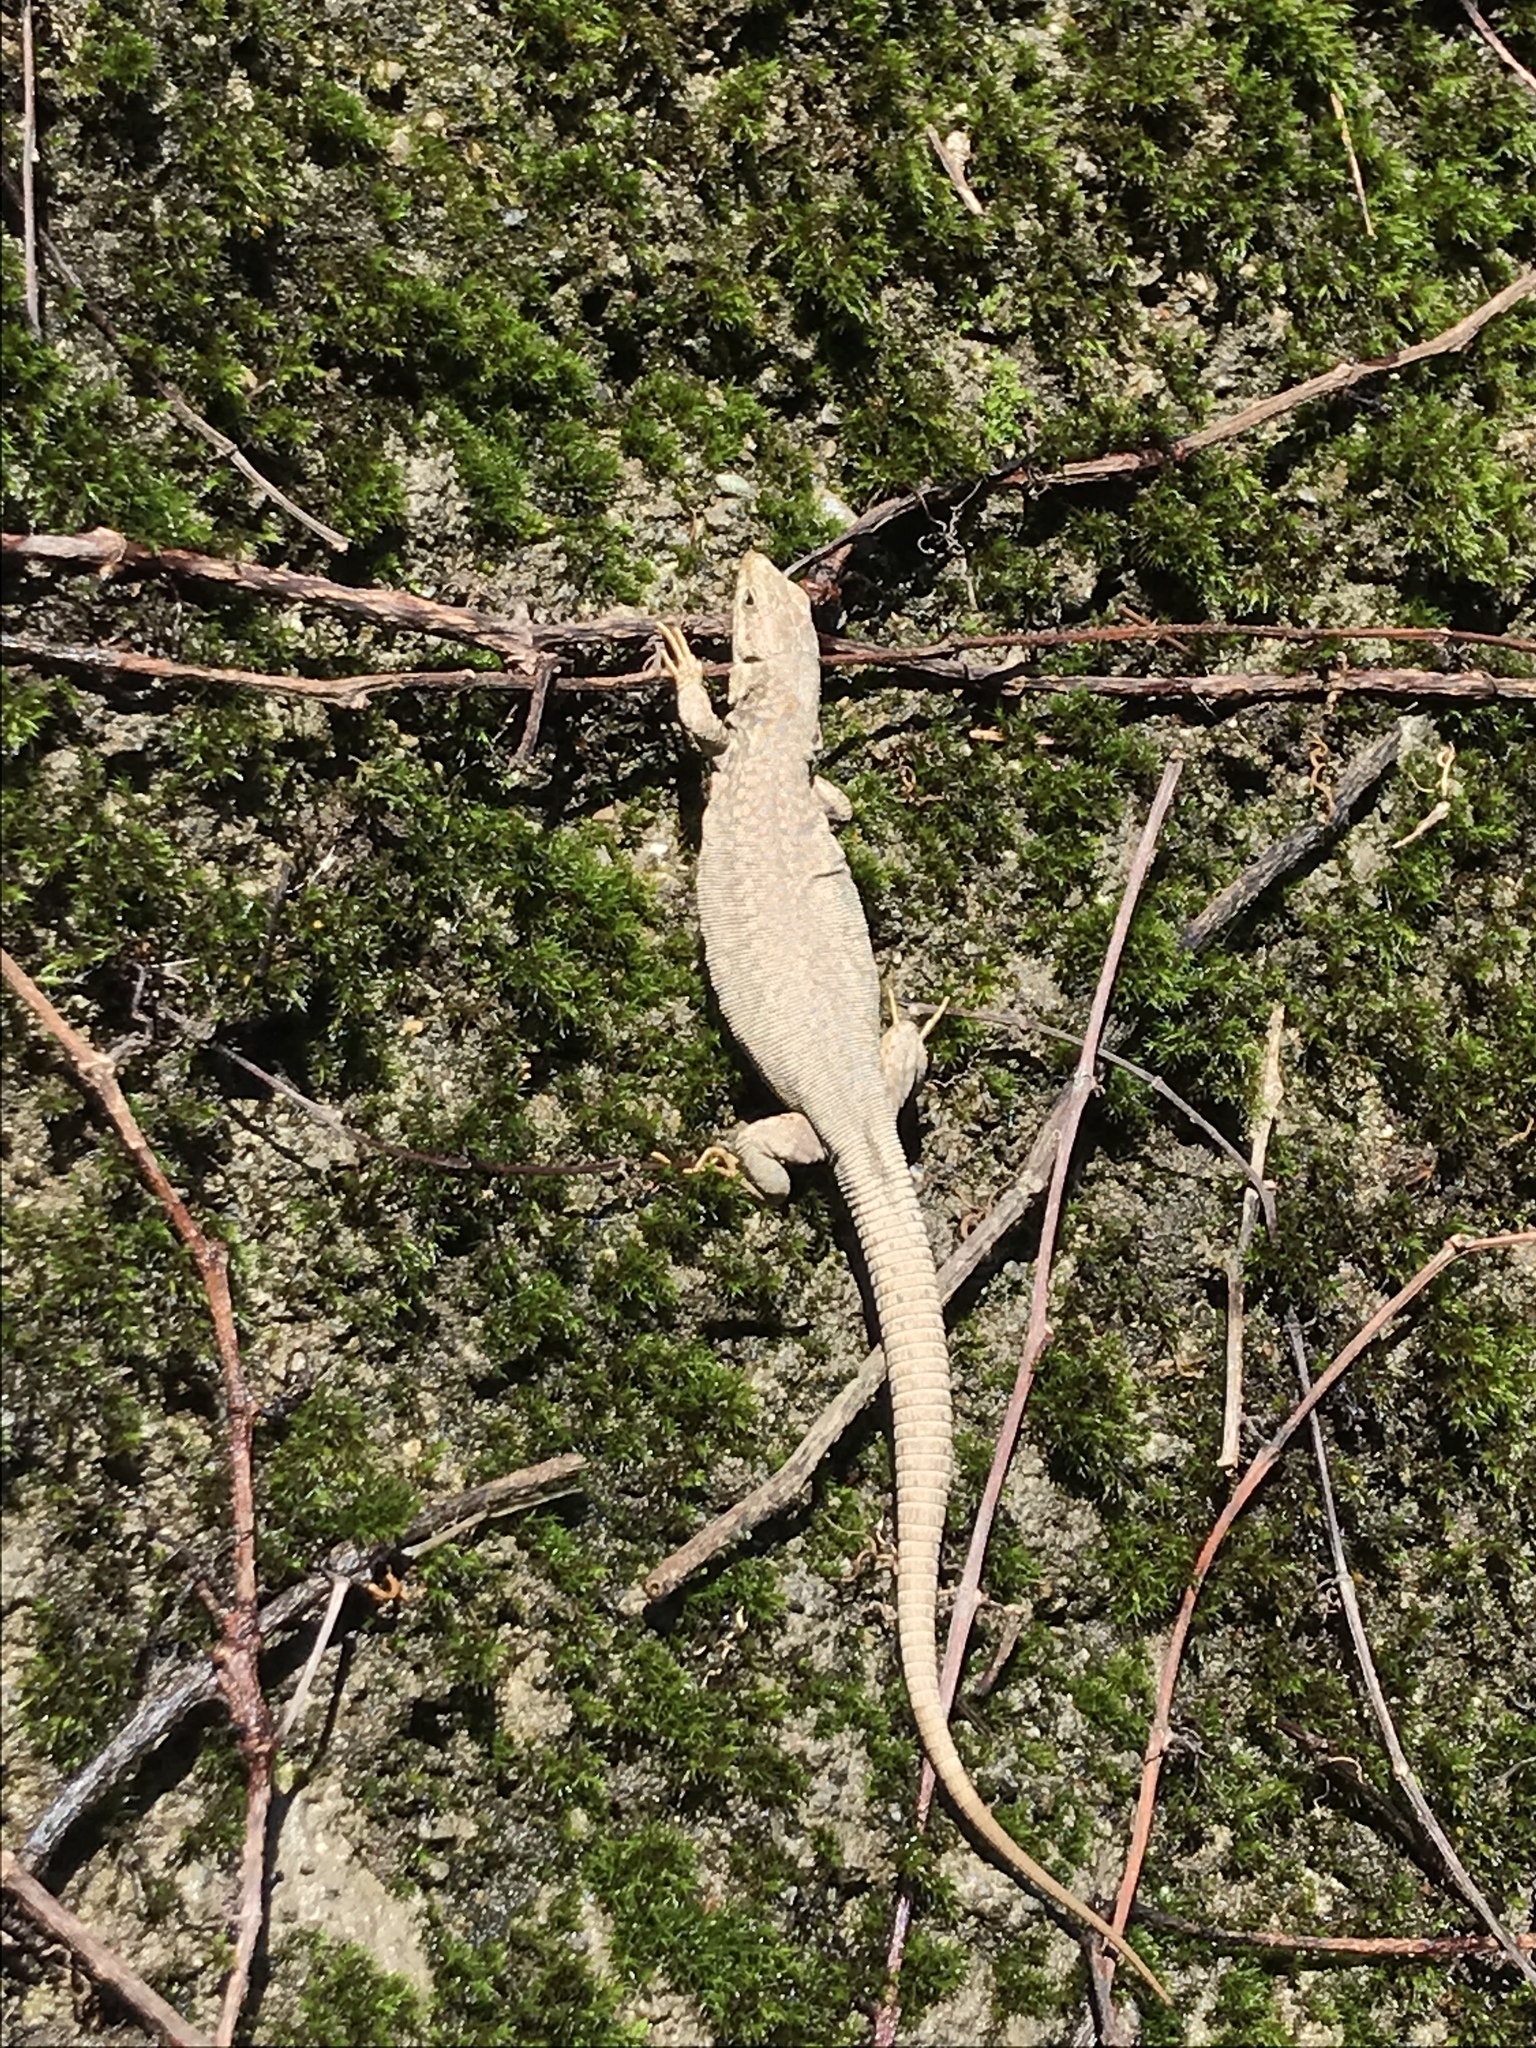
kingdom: Animalia
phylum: Chordata
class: Squamata
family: Lacertidae
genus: Podarcis
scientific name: Podarcis muralis
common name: Common wall lizard
